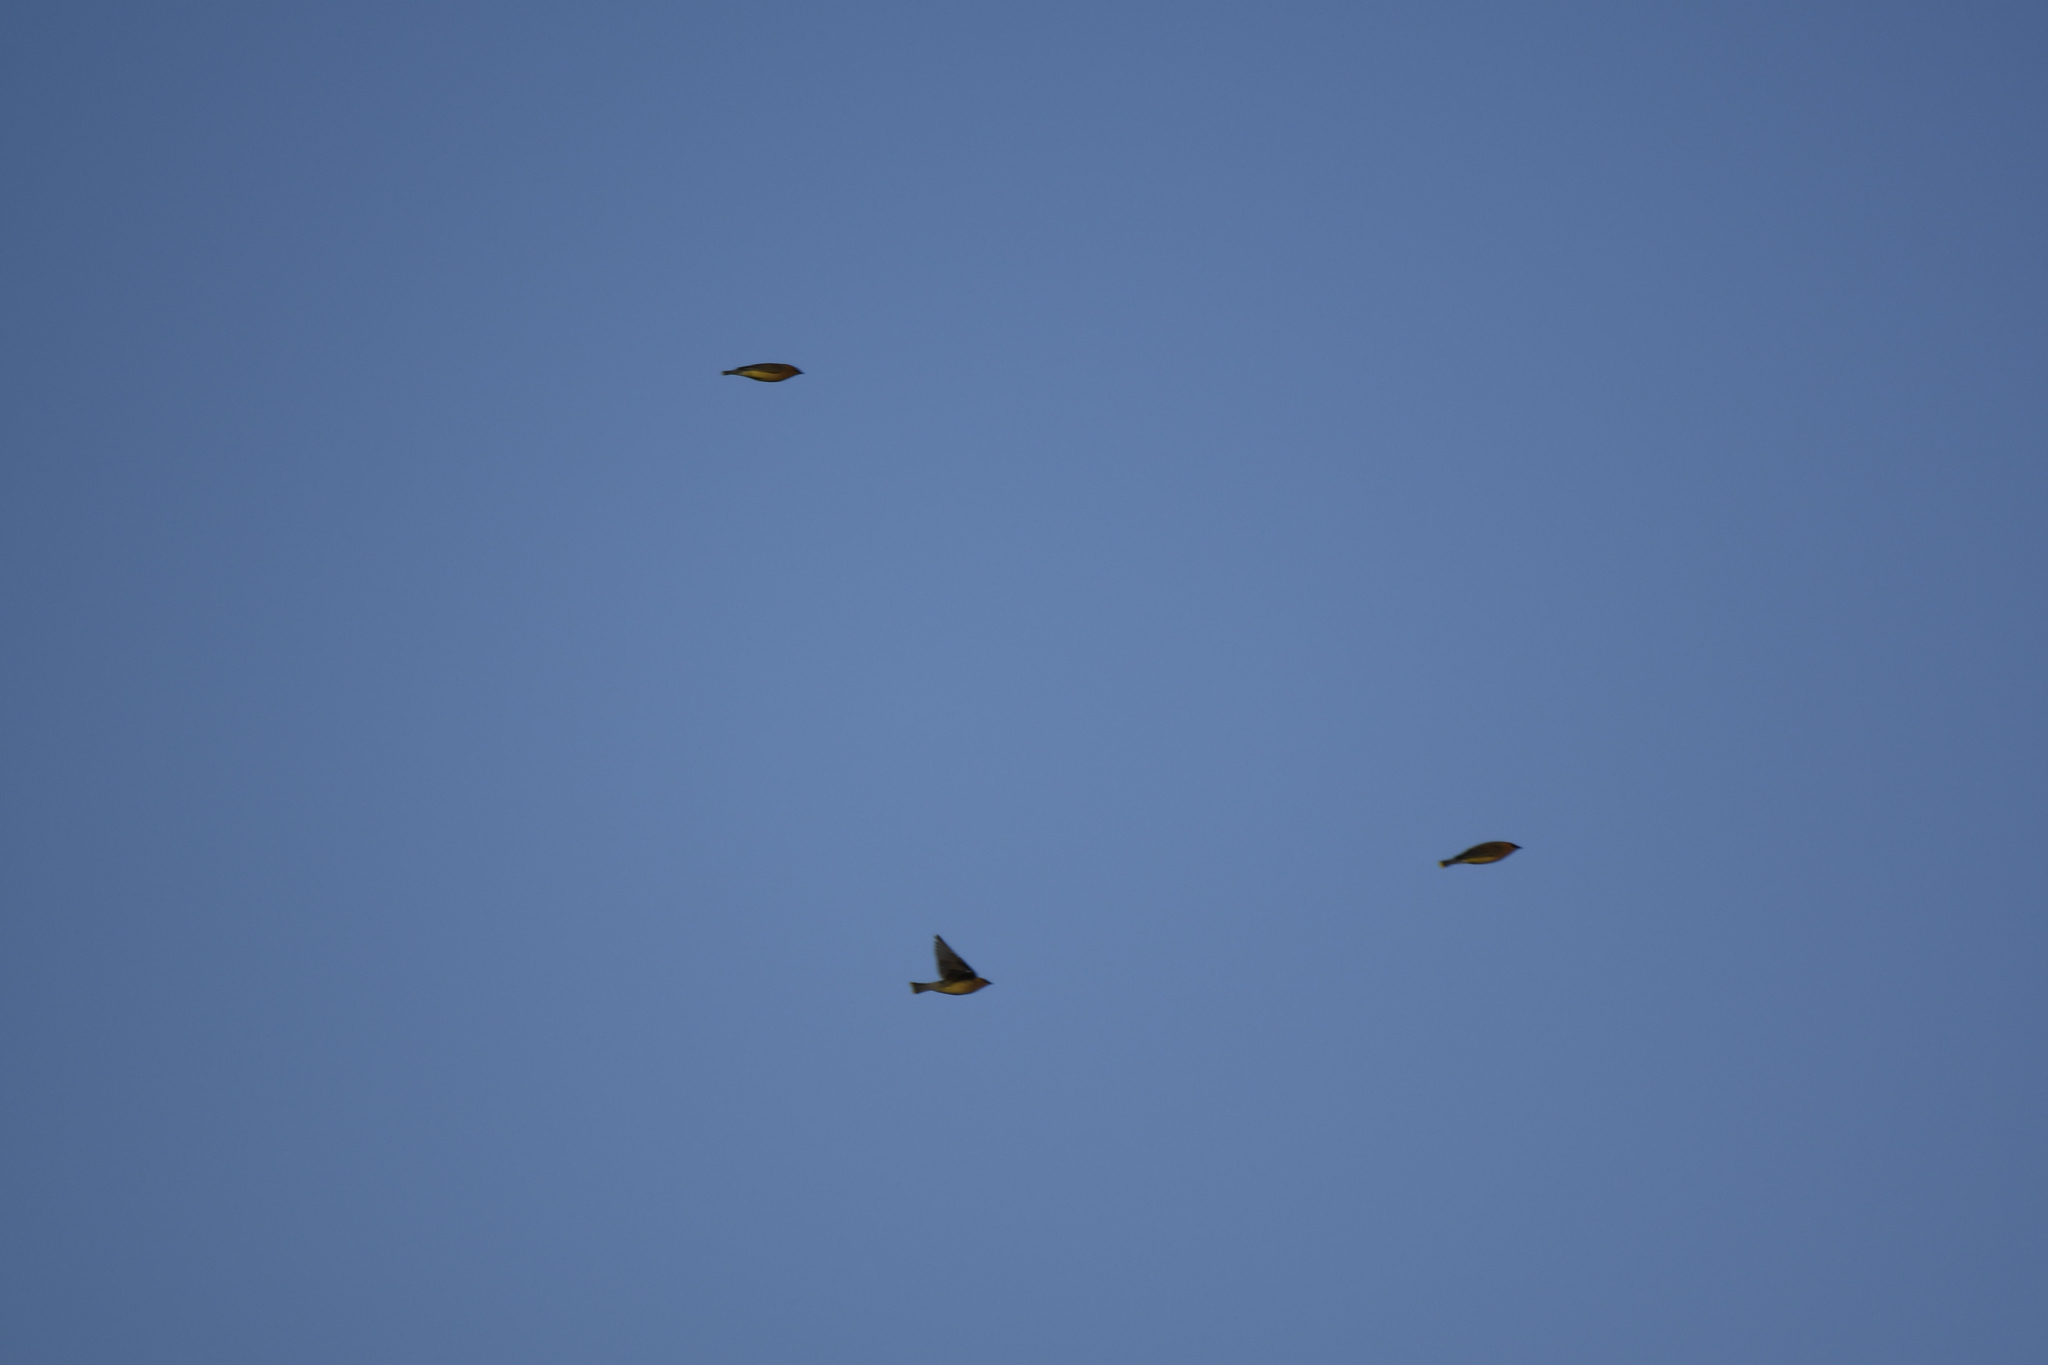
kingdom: Animalia
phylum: Chordata
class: Aves
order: Passeriformes
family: Bombycillidae
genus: Bombycilla
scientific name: Bombycilla cedrorum
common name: Cedar waxwing
